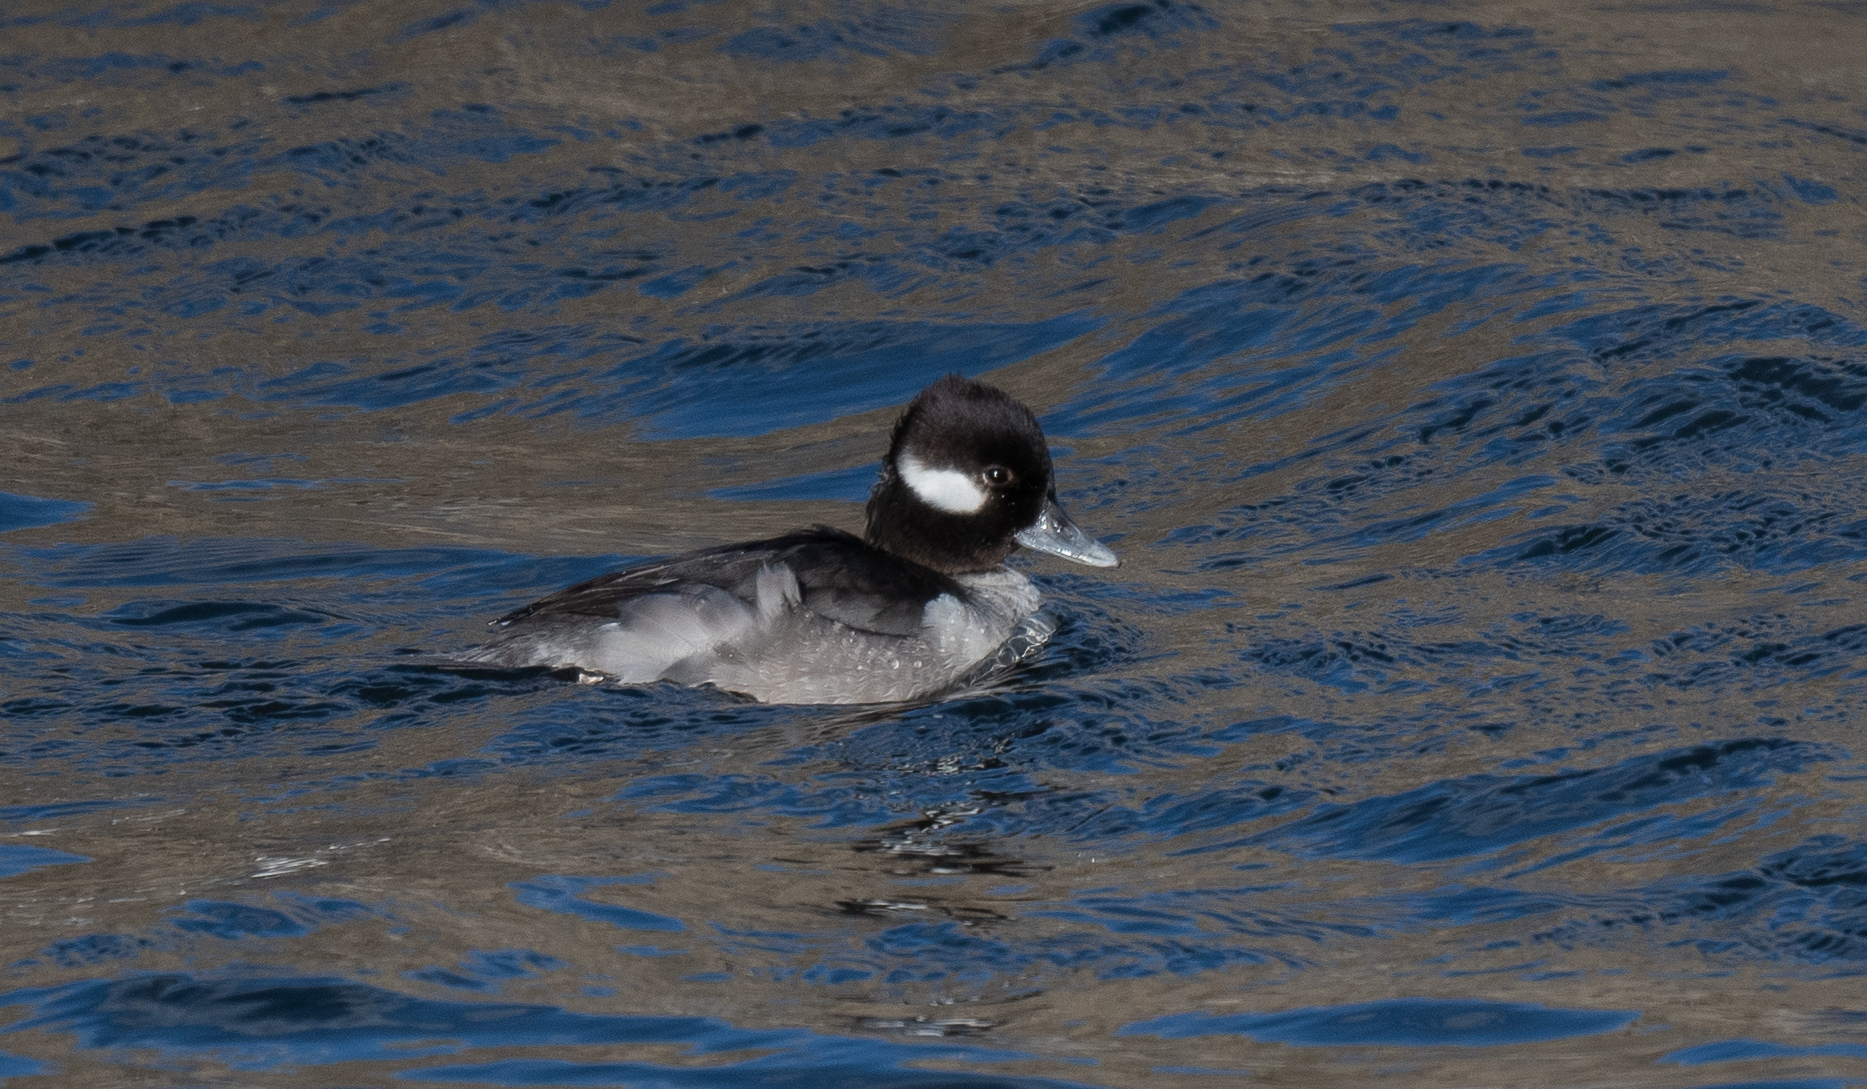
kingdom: Animalia
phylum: Chordata
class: Aves
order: Anseriformes
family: Anatidae
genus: Bucephala
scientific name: Bucephala albeola
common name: Bufflehead
